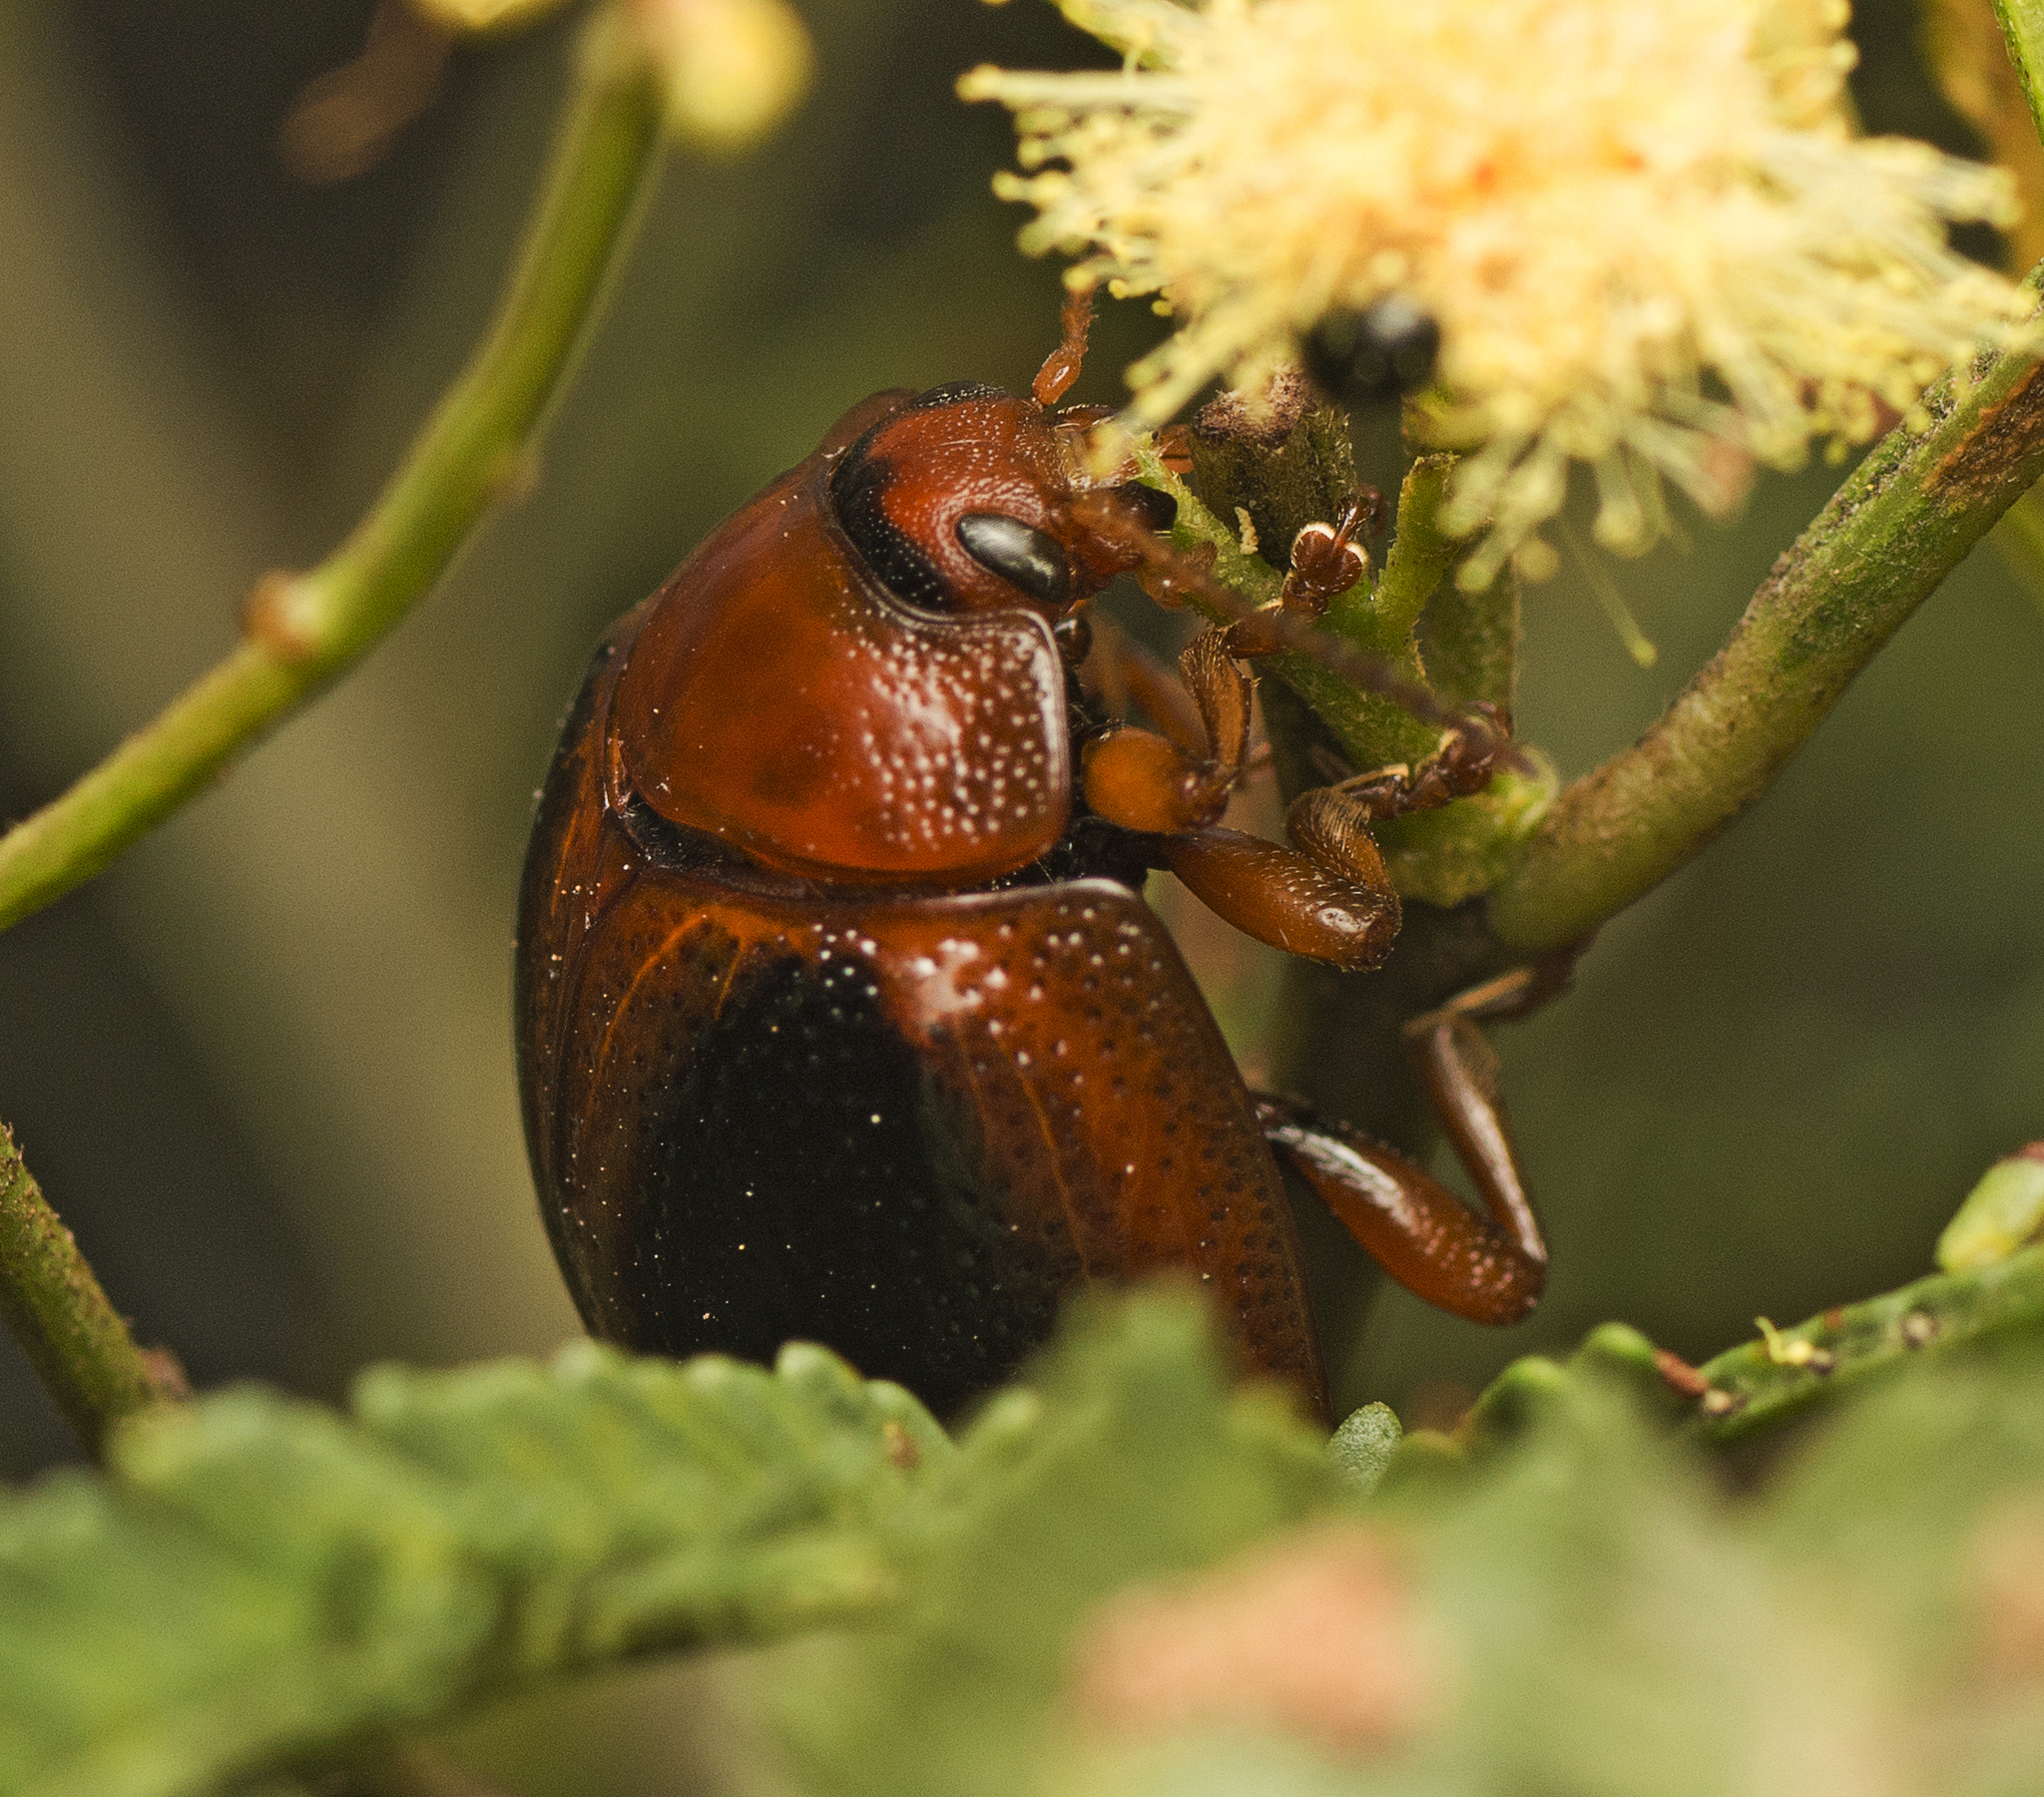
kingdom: Animalia
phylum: Arthropoda
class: Insecta
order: Coleoptera
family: Chrysomelidae
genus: Dicranosterna
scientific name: Dicranosterna
